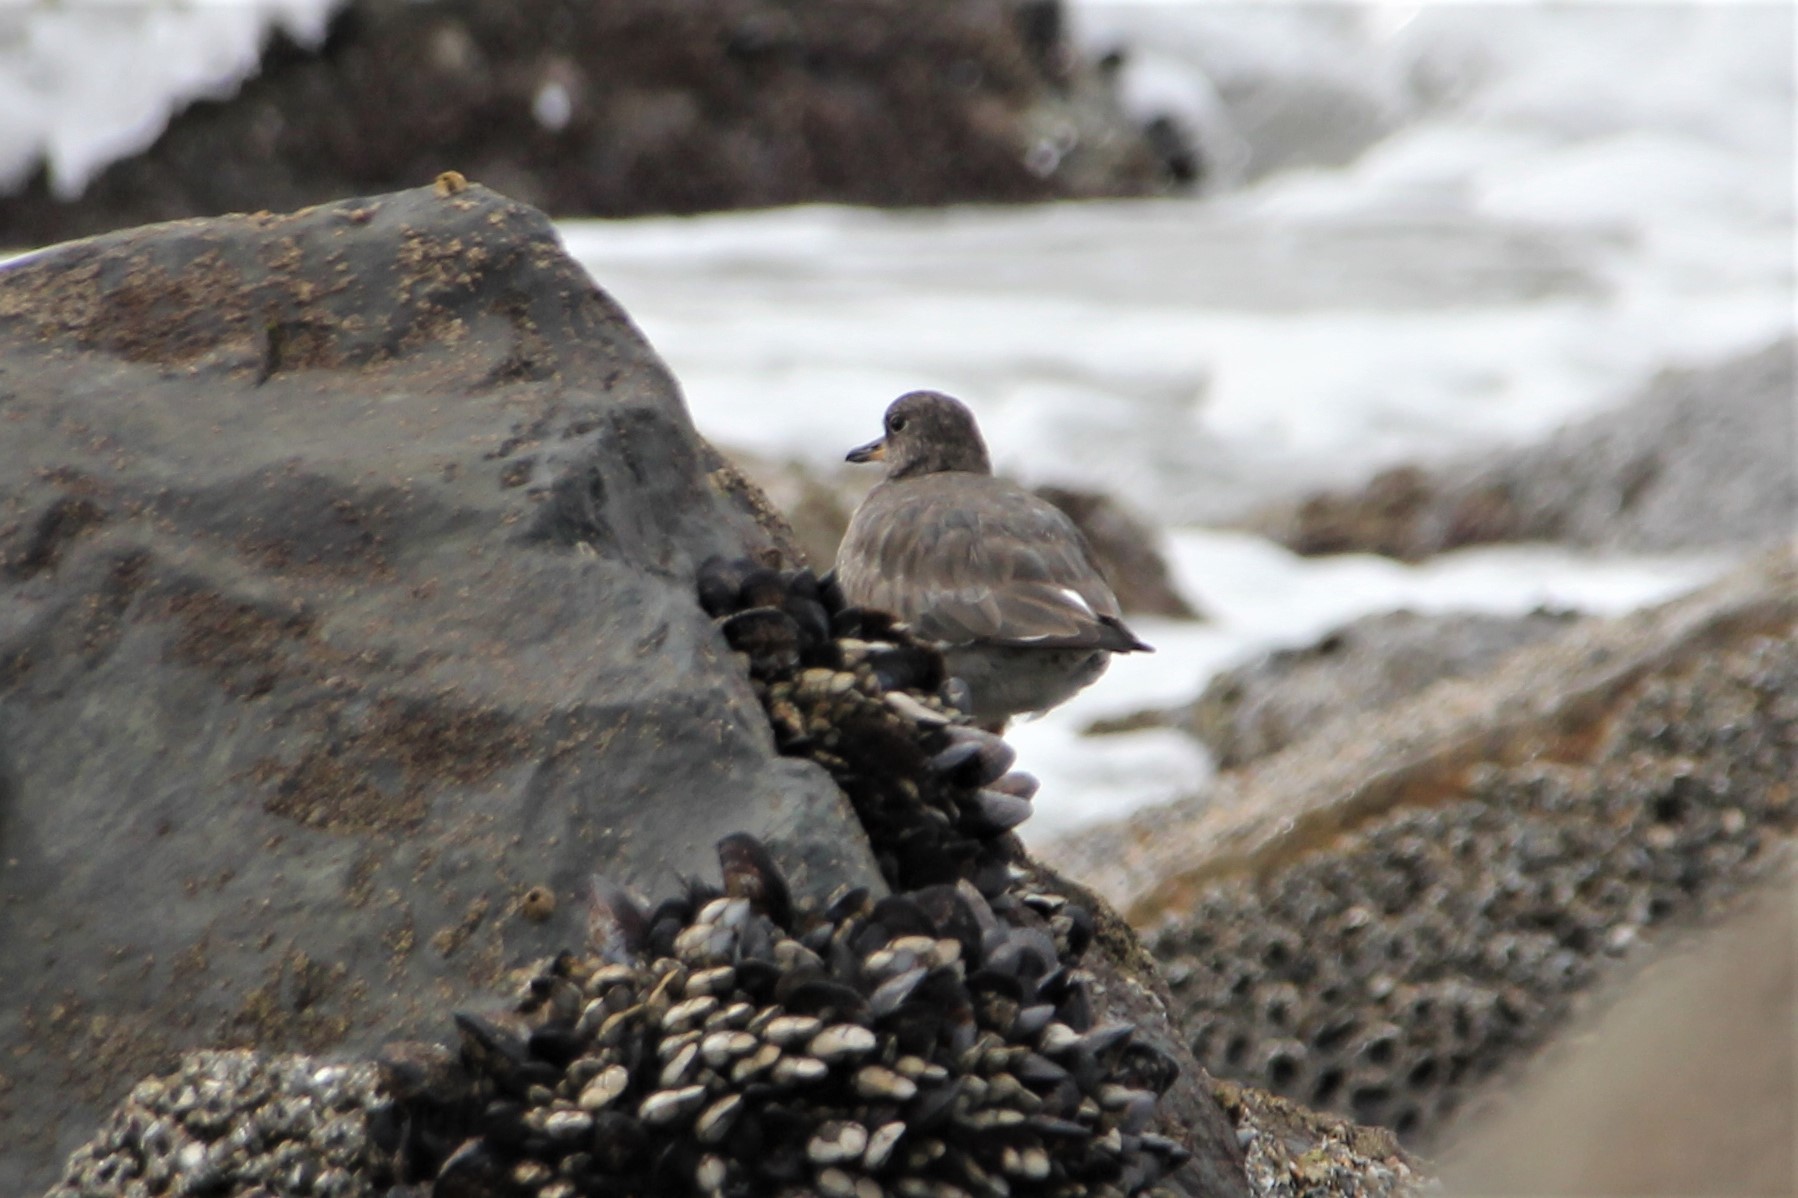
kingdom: Animalia
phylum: Chordata
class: Aves
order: Charadriiformes
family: Scolopacidae
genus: Calidris
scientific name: Calidris virgata
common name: Surfbird
